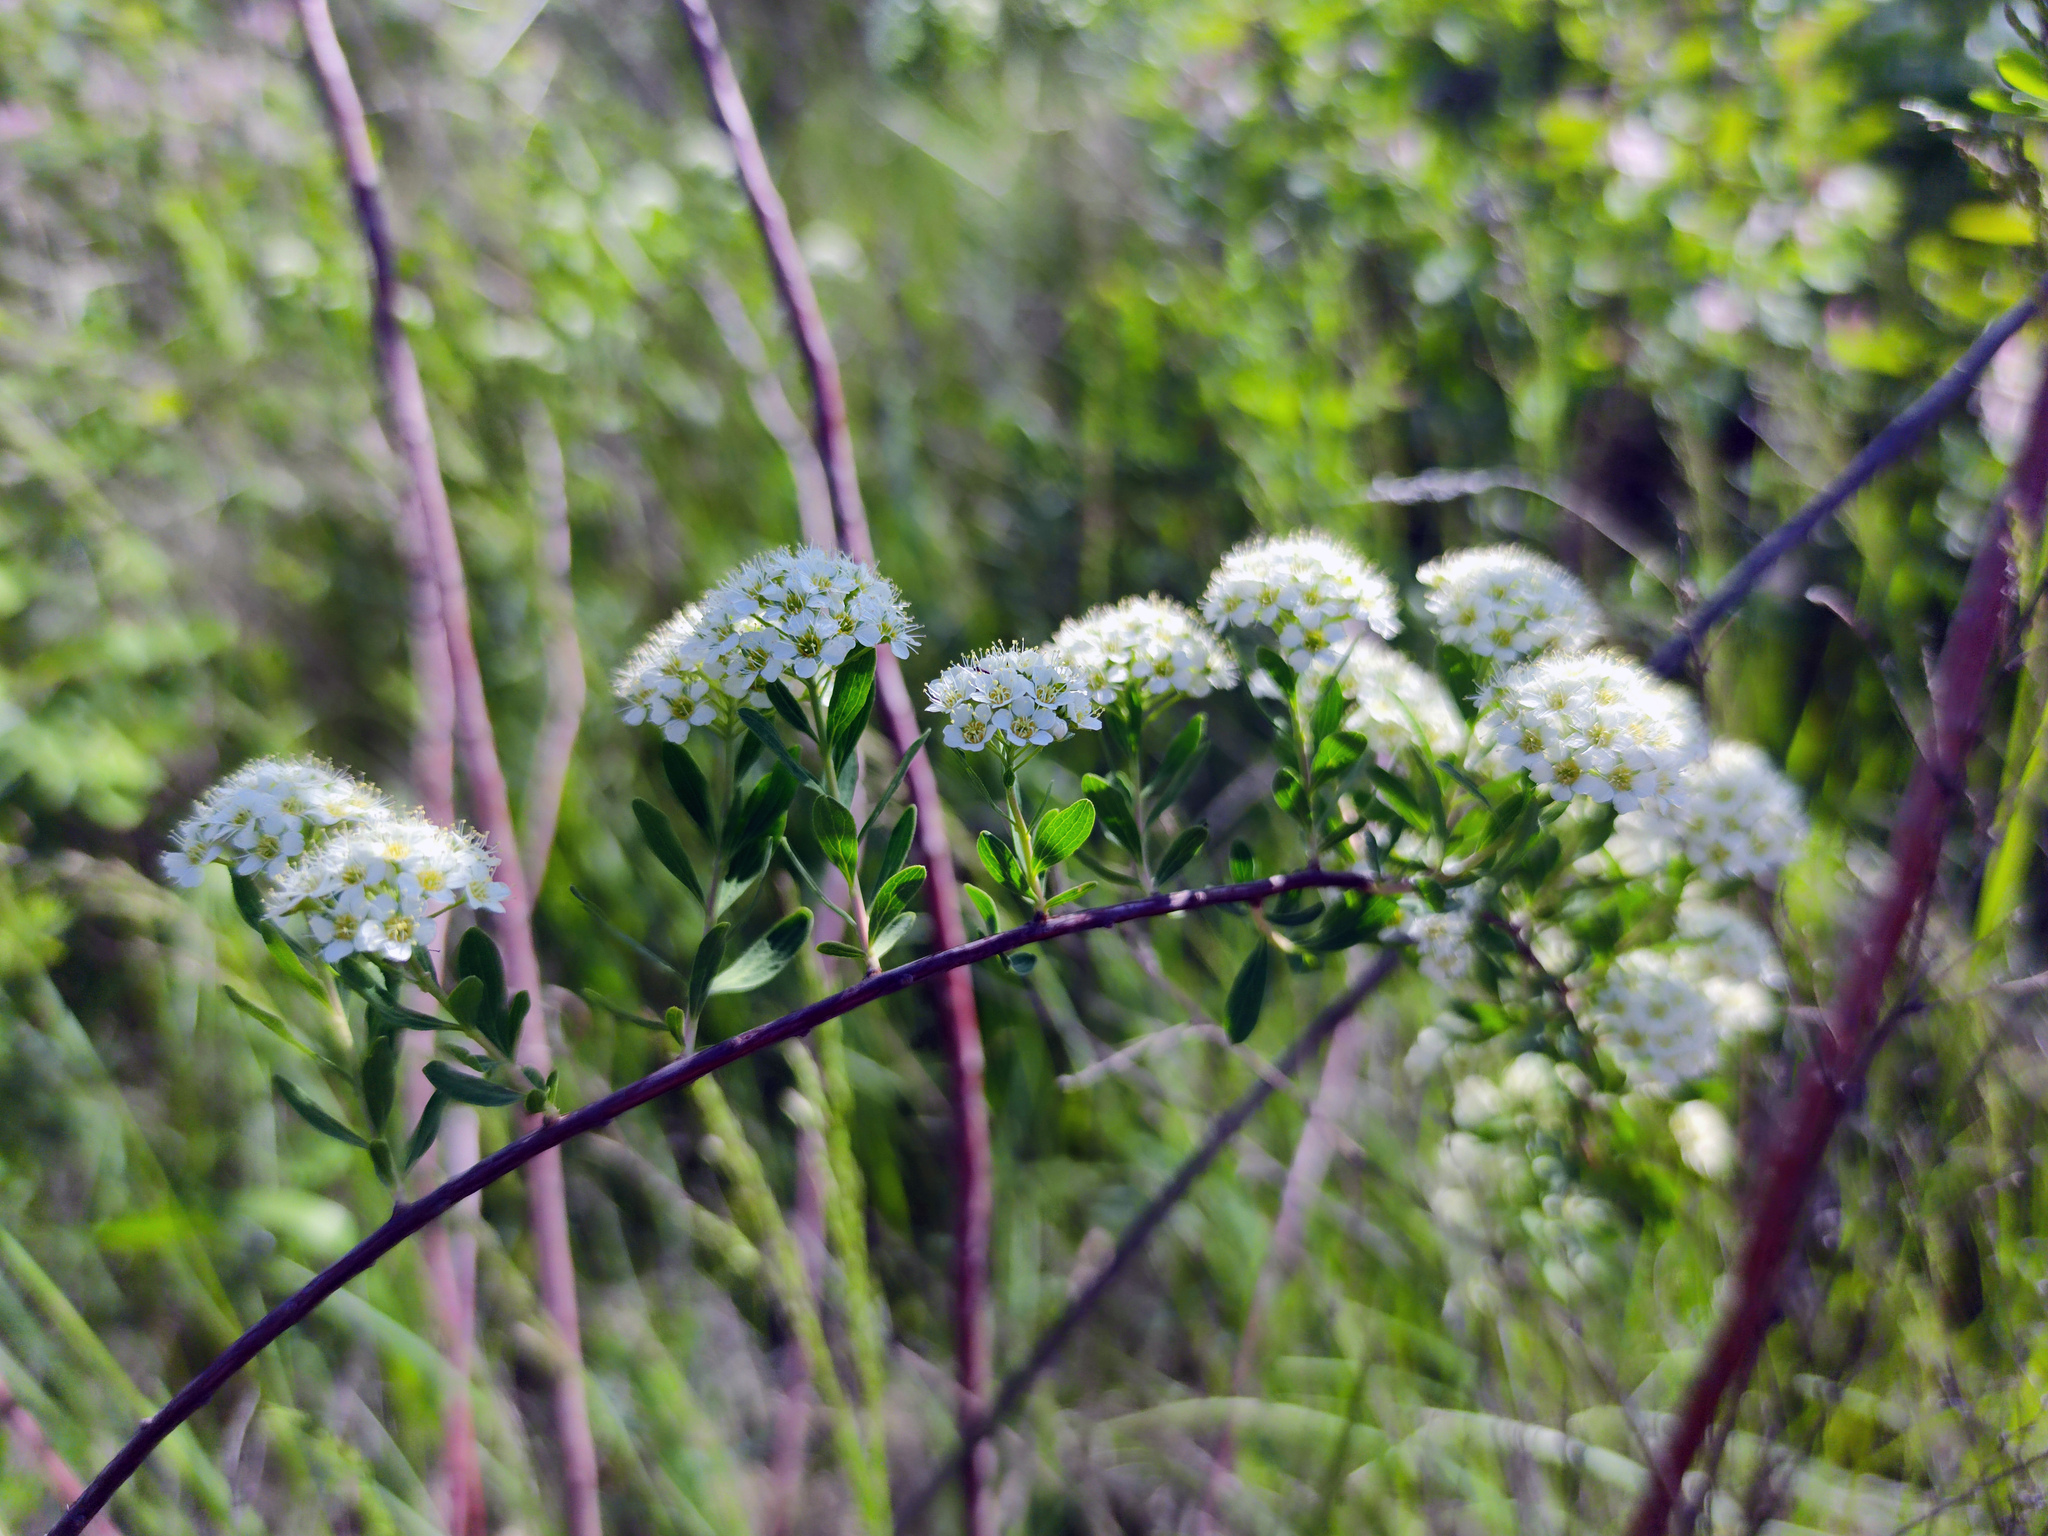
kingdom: Plantae
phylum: Tracheophyta
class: Magnoliopsida
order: Rosales
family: Rosaceae
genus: Spiraea
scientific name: Spiraea crenata
